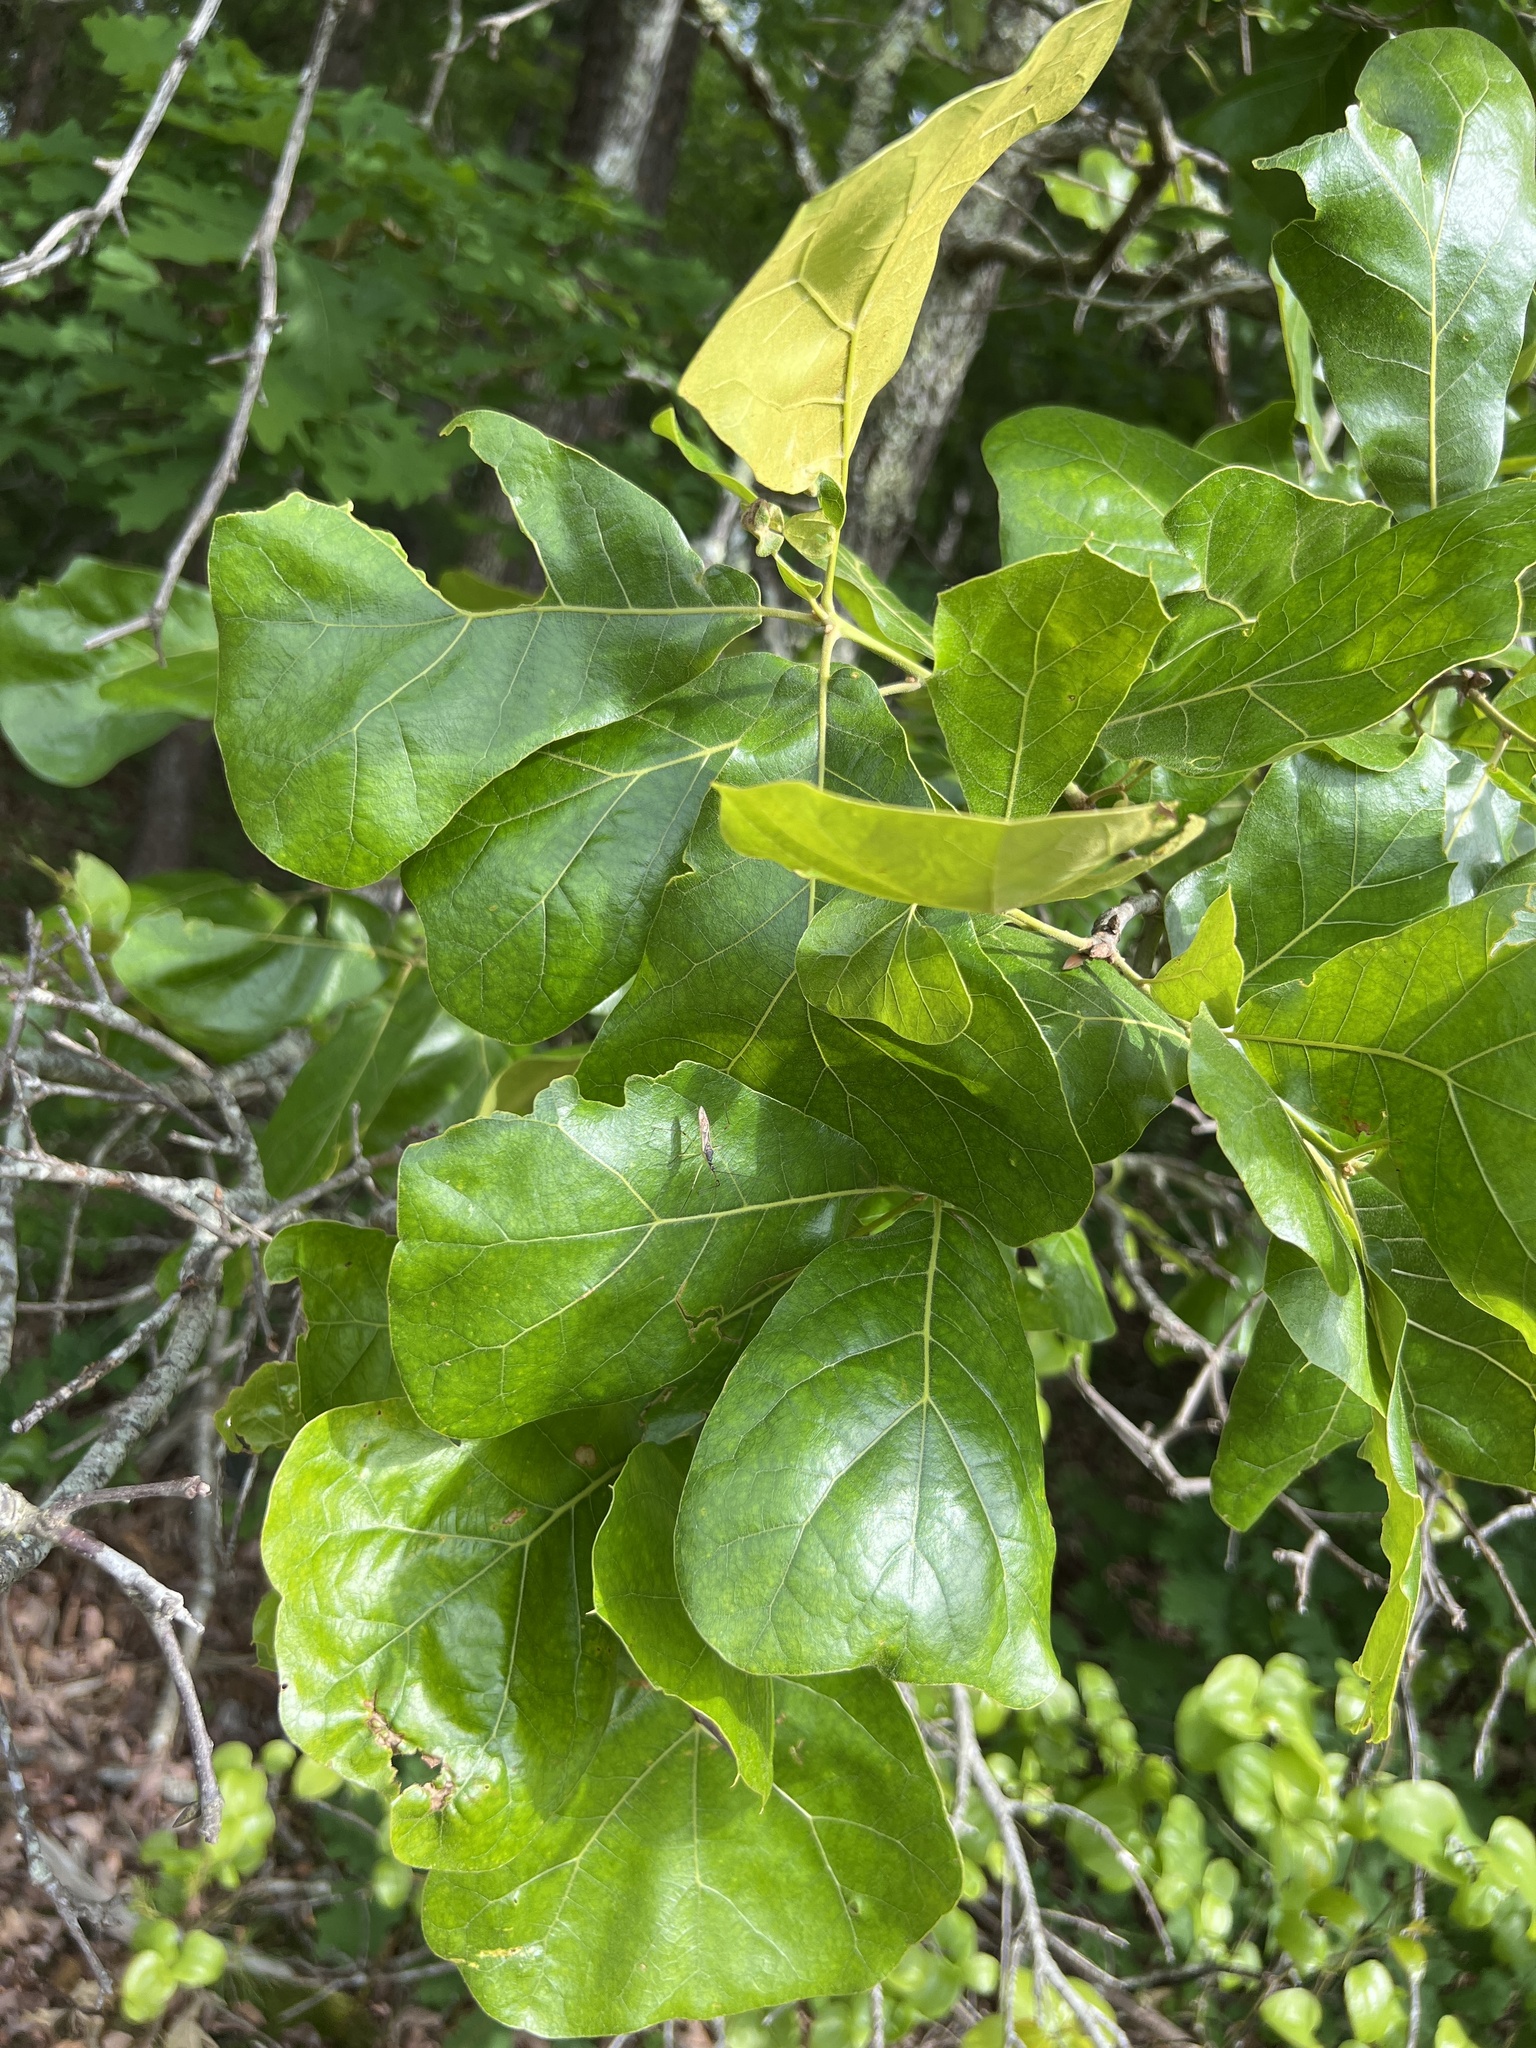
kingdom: Plantae
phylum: Tracheophyta
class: Magnoliopsida
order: Fagales
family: Fagaceae
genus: Quercus
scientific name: Quercus marilandica
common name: Blackjack oak
